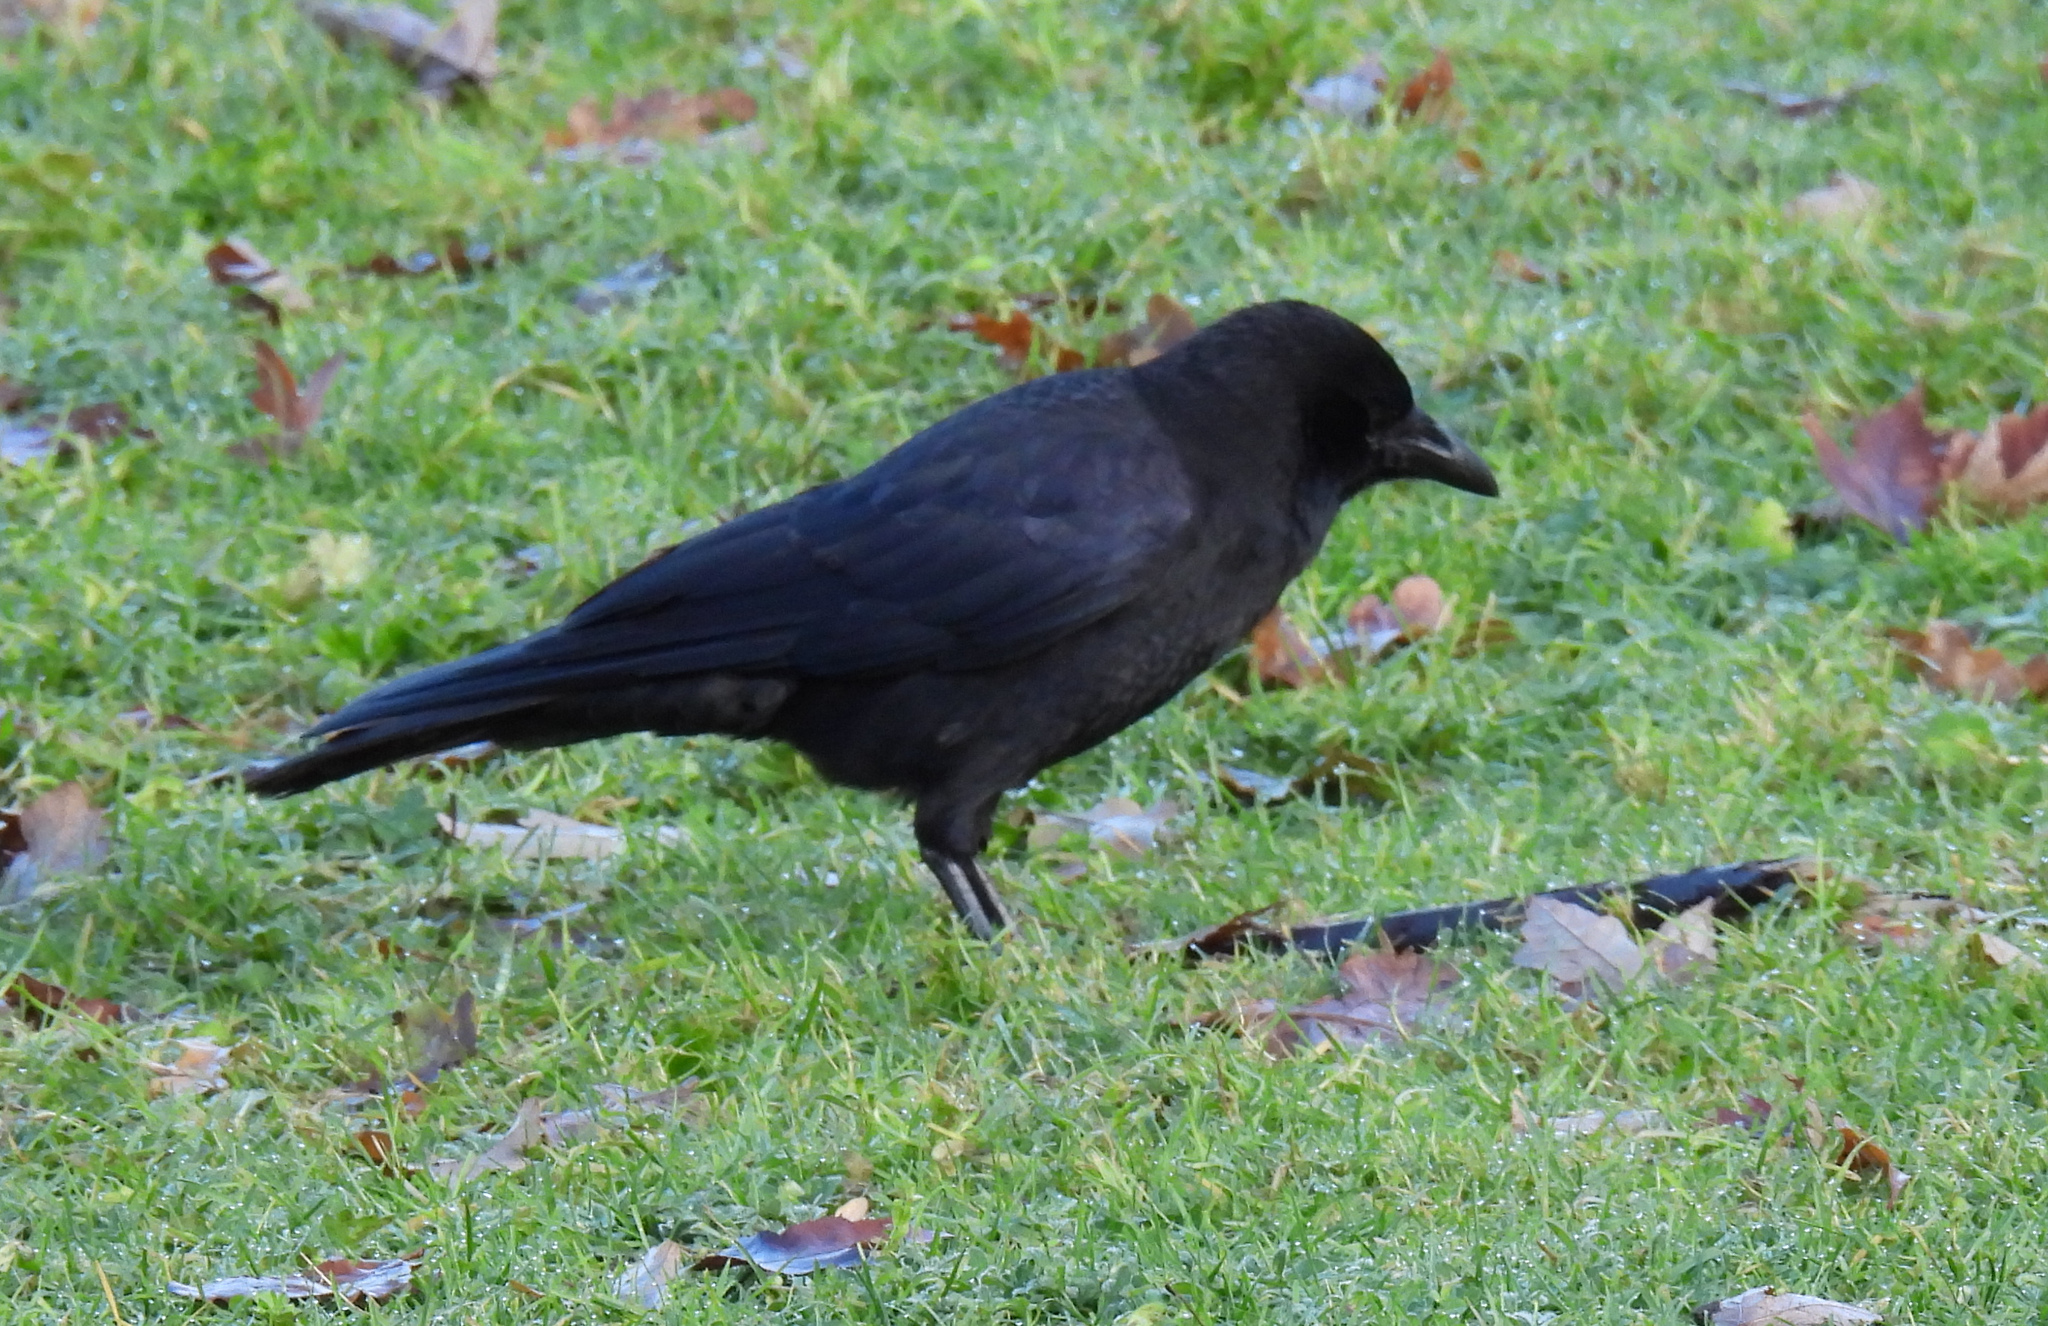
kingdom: Animalia
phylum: Chordata
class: Aves
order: Passeriformes
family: Corvidae
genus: Corvus
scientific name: Corvus brachyrhynchos
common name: American crow
